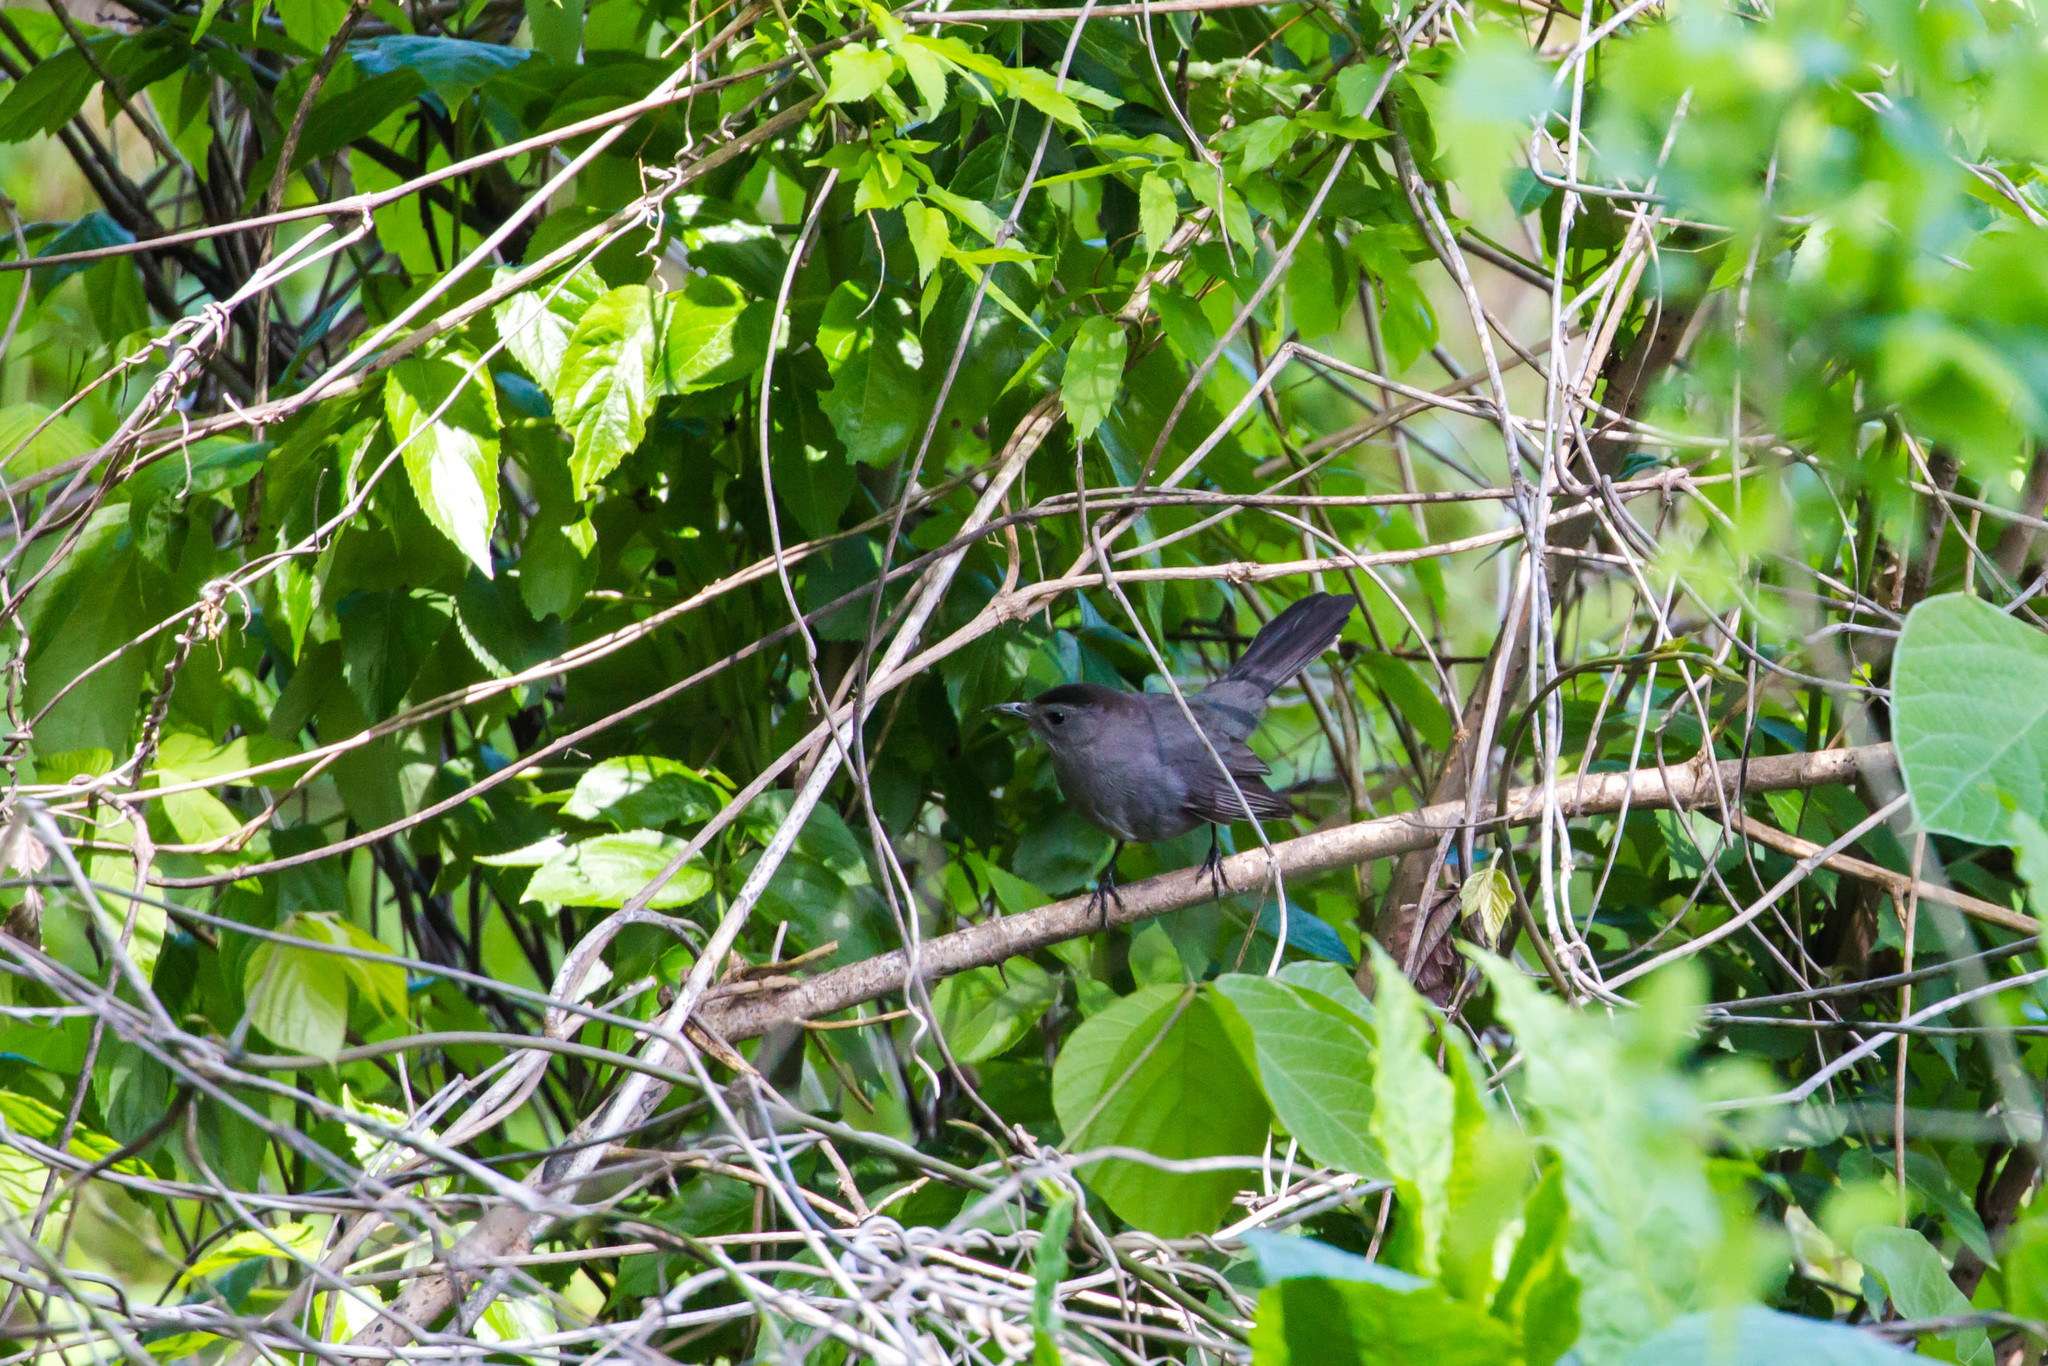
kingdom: Animalia
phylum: Chordata
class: Aves
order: Passeriformes
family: Mimidae
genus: Dumetella
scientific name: Dumetella carolinensis
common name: Gray catbird
